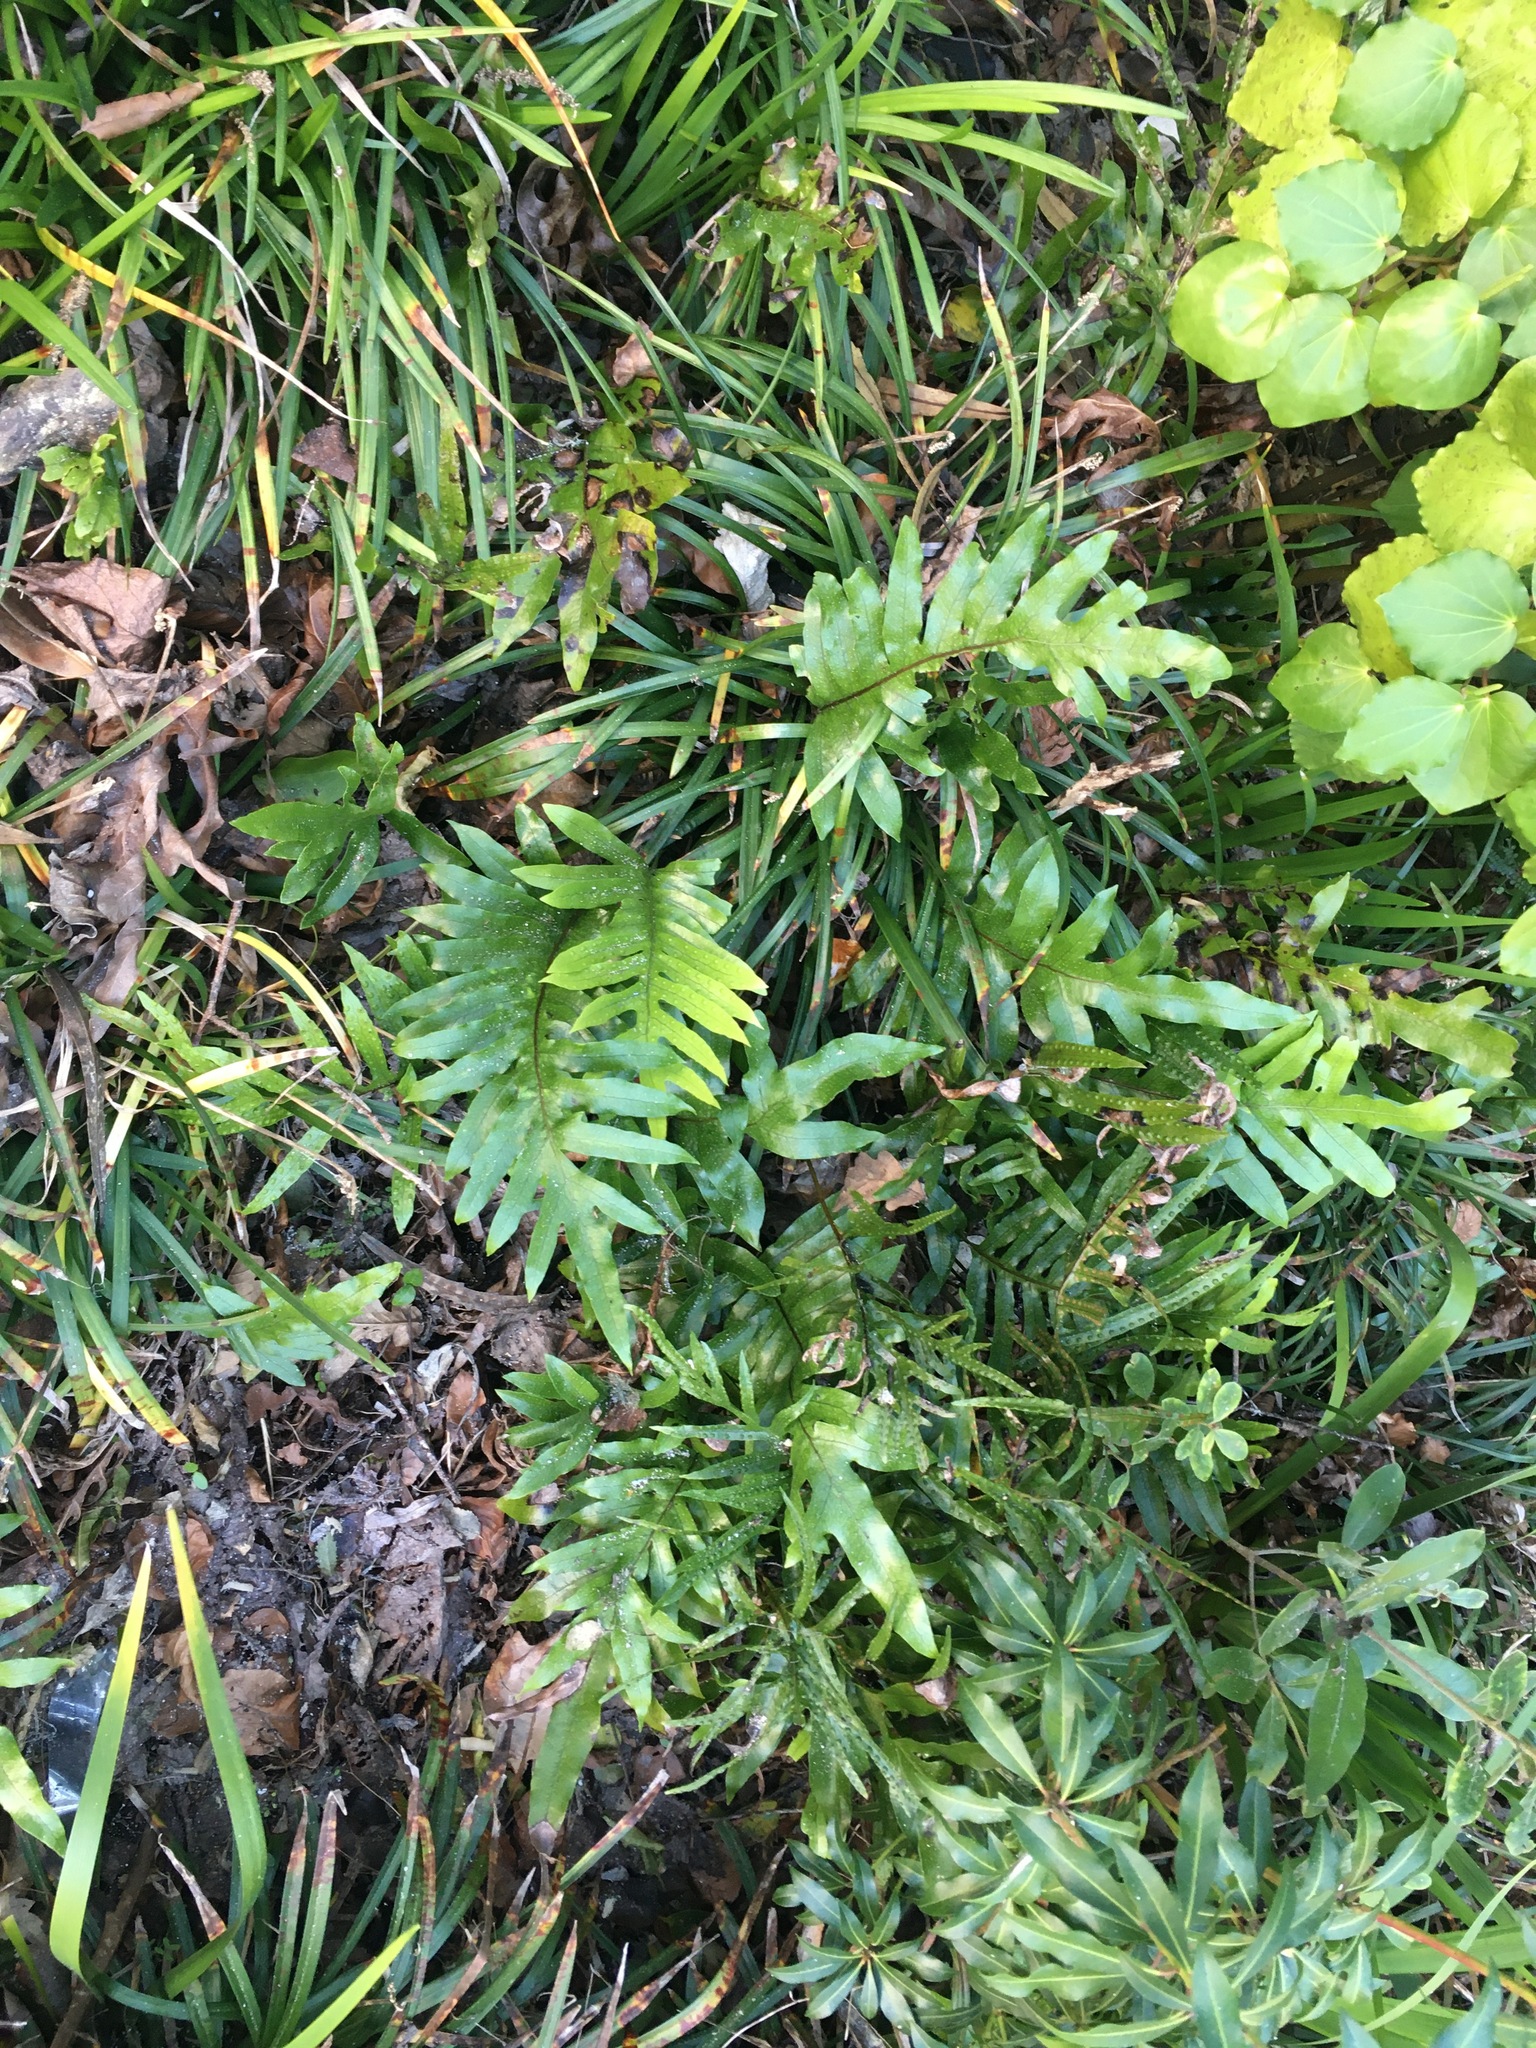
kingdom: Plantae
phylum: Tracheophyta
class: Polypodiopsida
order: Polypodiales
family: Polypodiaceae
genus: Lecanopteris
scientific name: Lecanopteris pustulata
